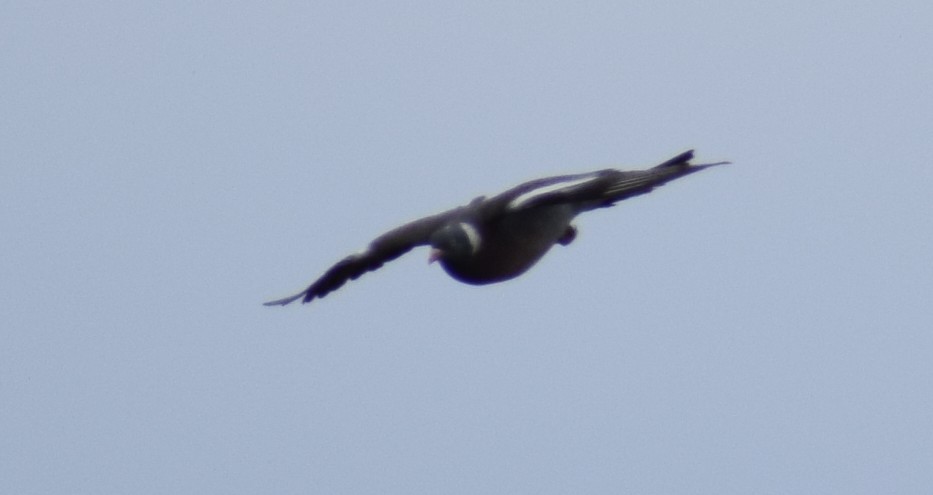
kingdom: Animalia
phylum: Chordata
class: Aves
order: Columbiformes
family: Columbidae
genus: Columba
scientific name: Columba palumbus
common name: Common wood pigeon
